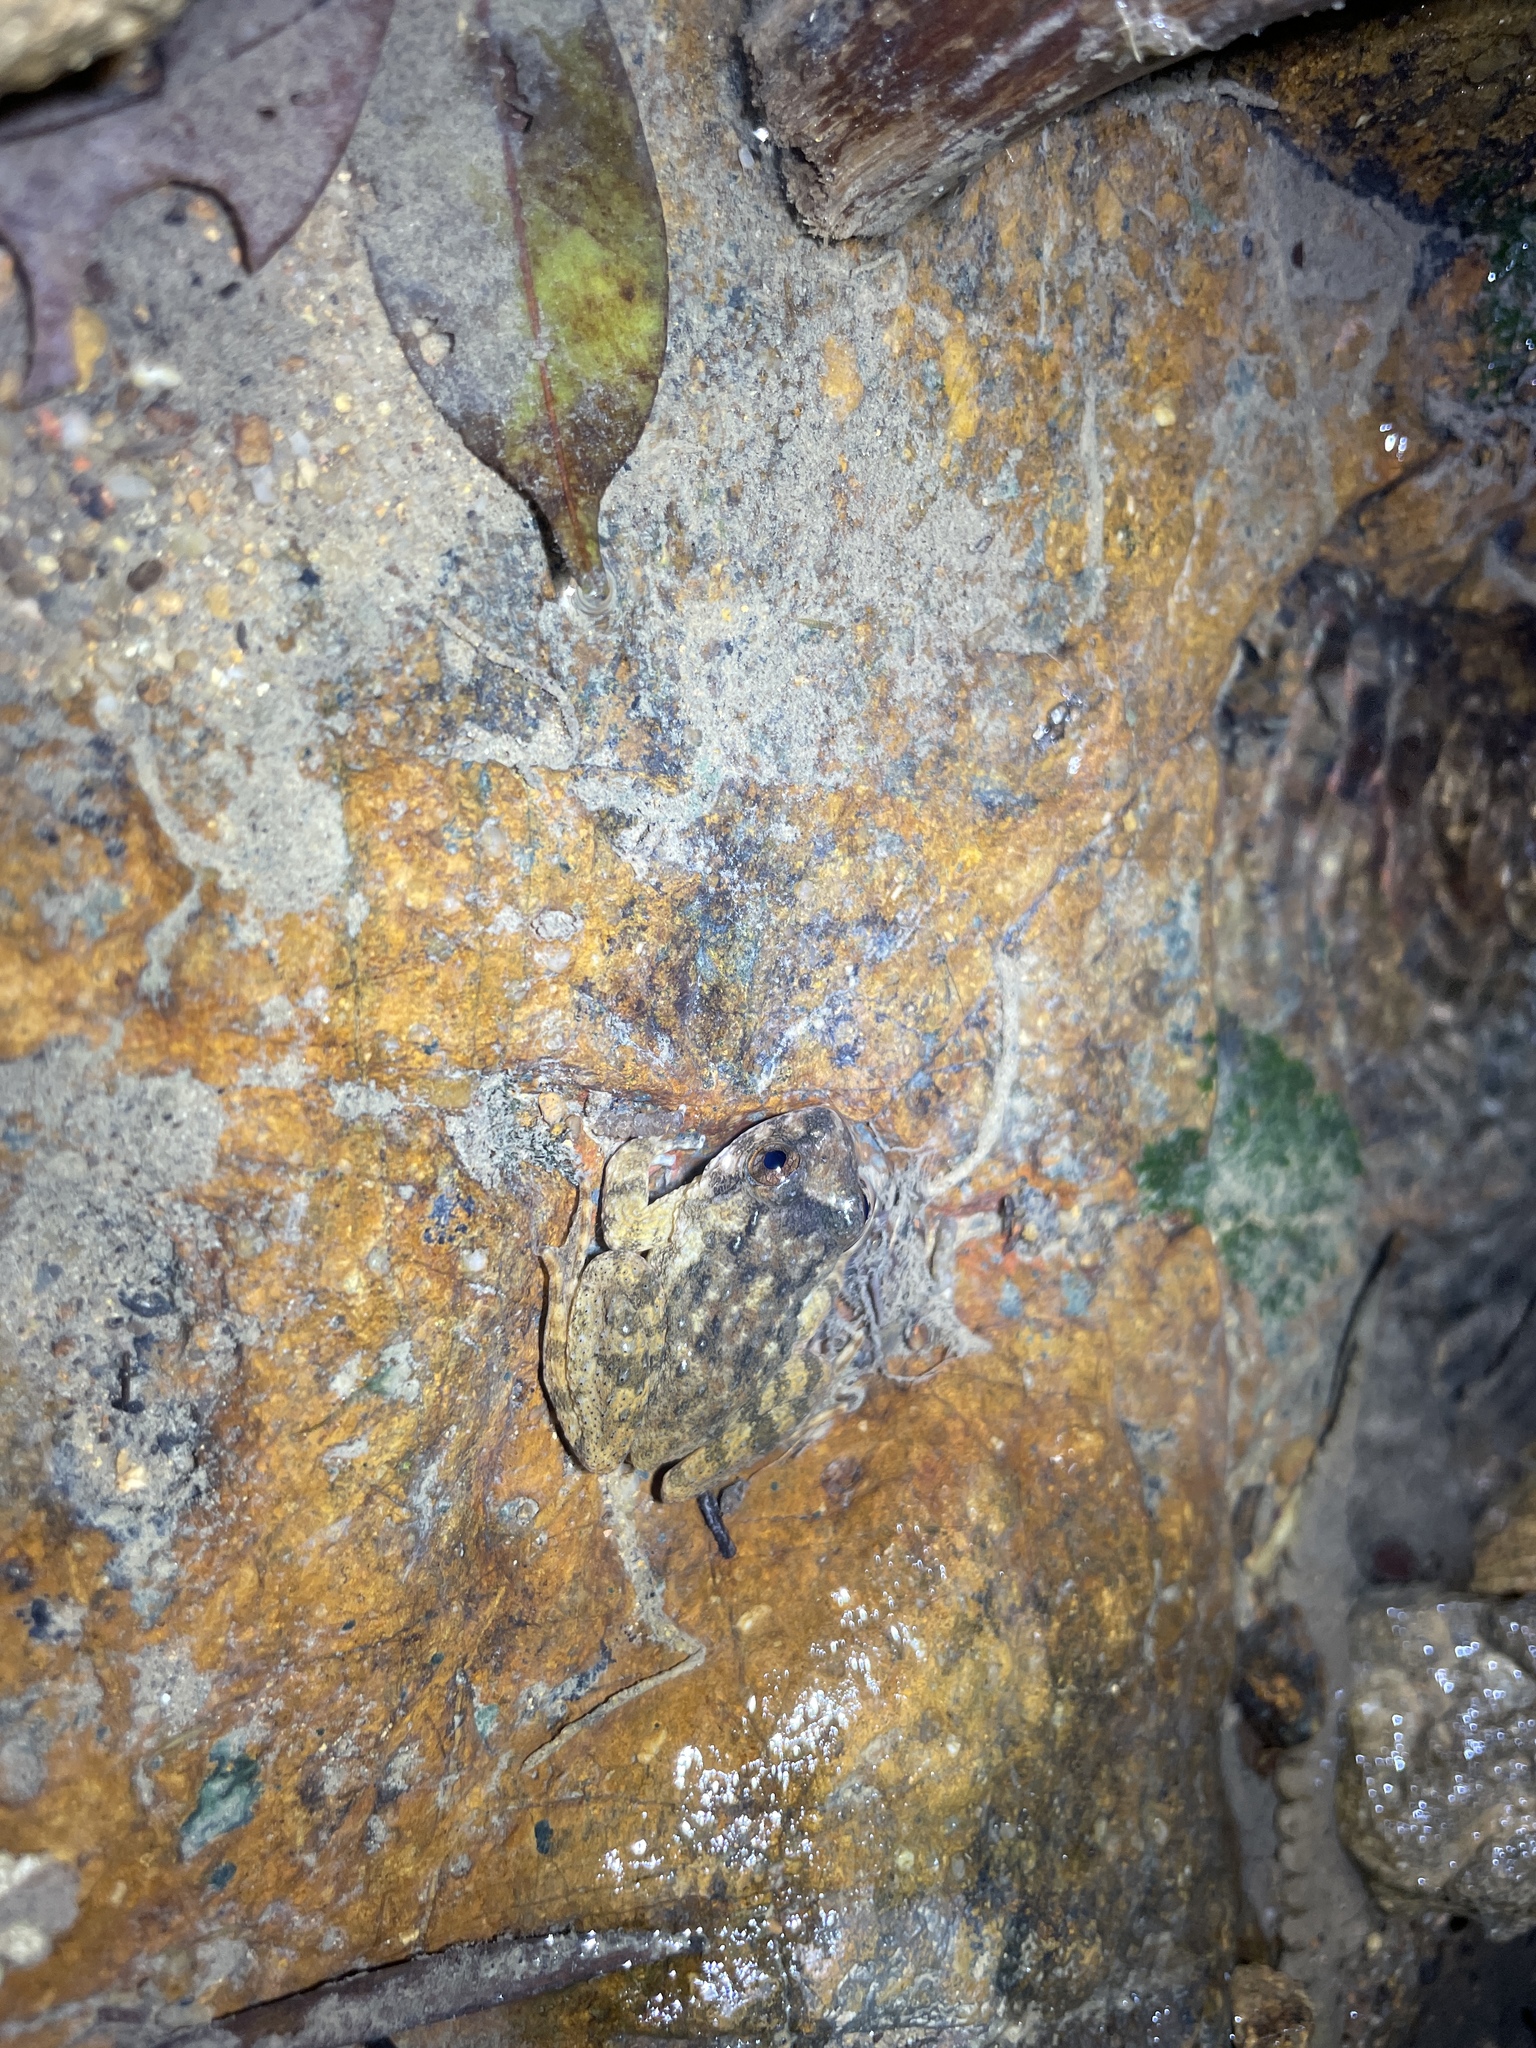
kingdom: Animalia
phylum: Chordata
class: Amphibia
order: Anura
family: Dicroglossidae
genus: Quasipaa
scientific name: Quasipaa exilispinosa
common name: Hong kong paa frog
